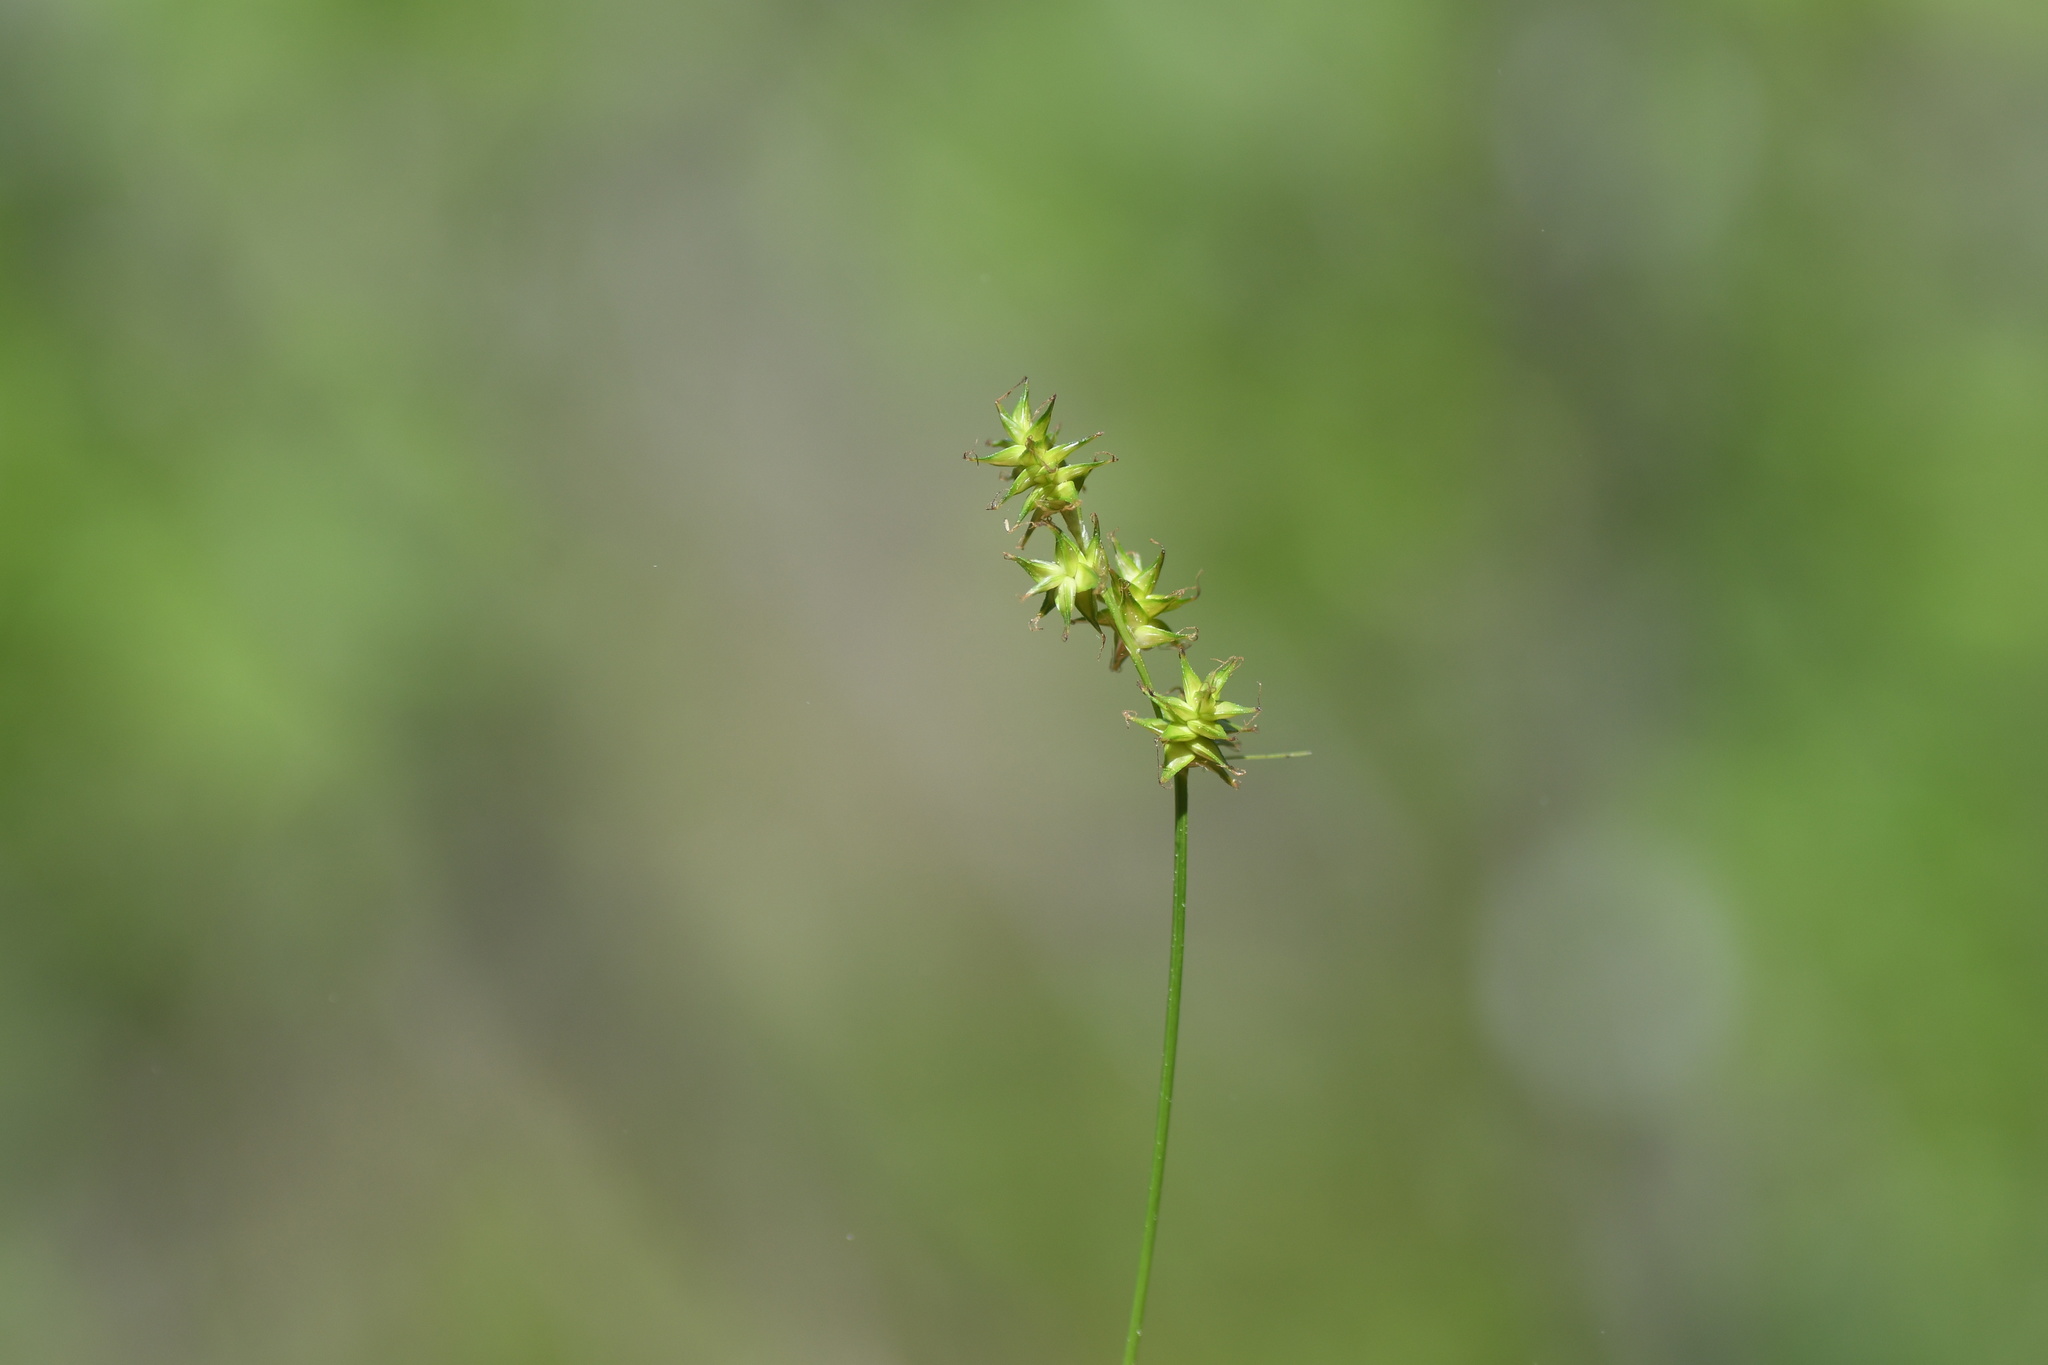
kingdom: Plantae
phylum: Tracheophyta
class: Liliopsida
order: Poales
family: Cyperaceae
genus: Carex
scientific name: Carex echinata
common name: Star sedge
